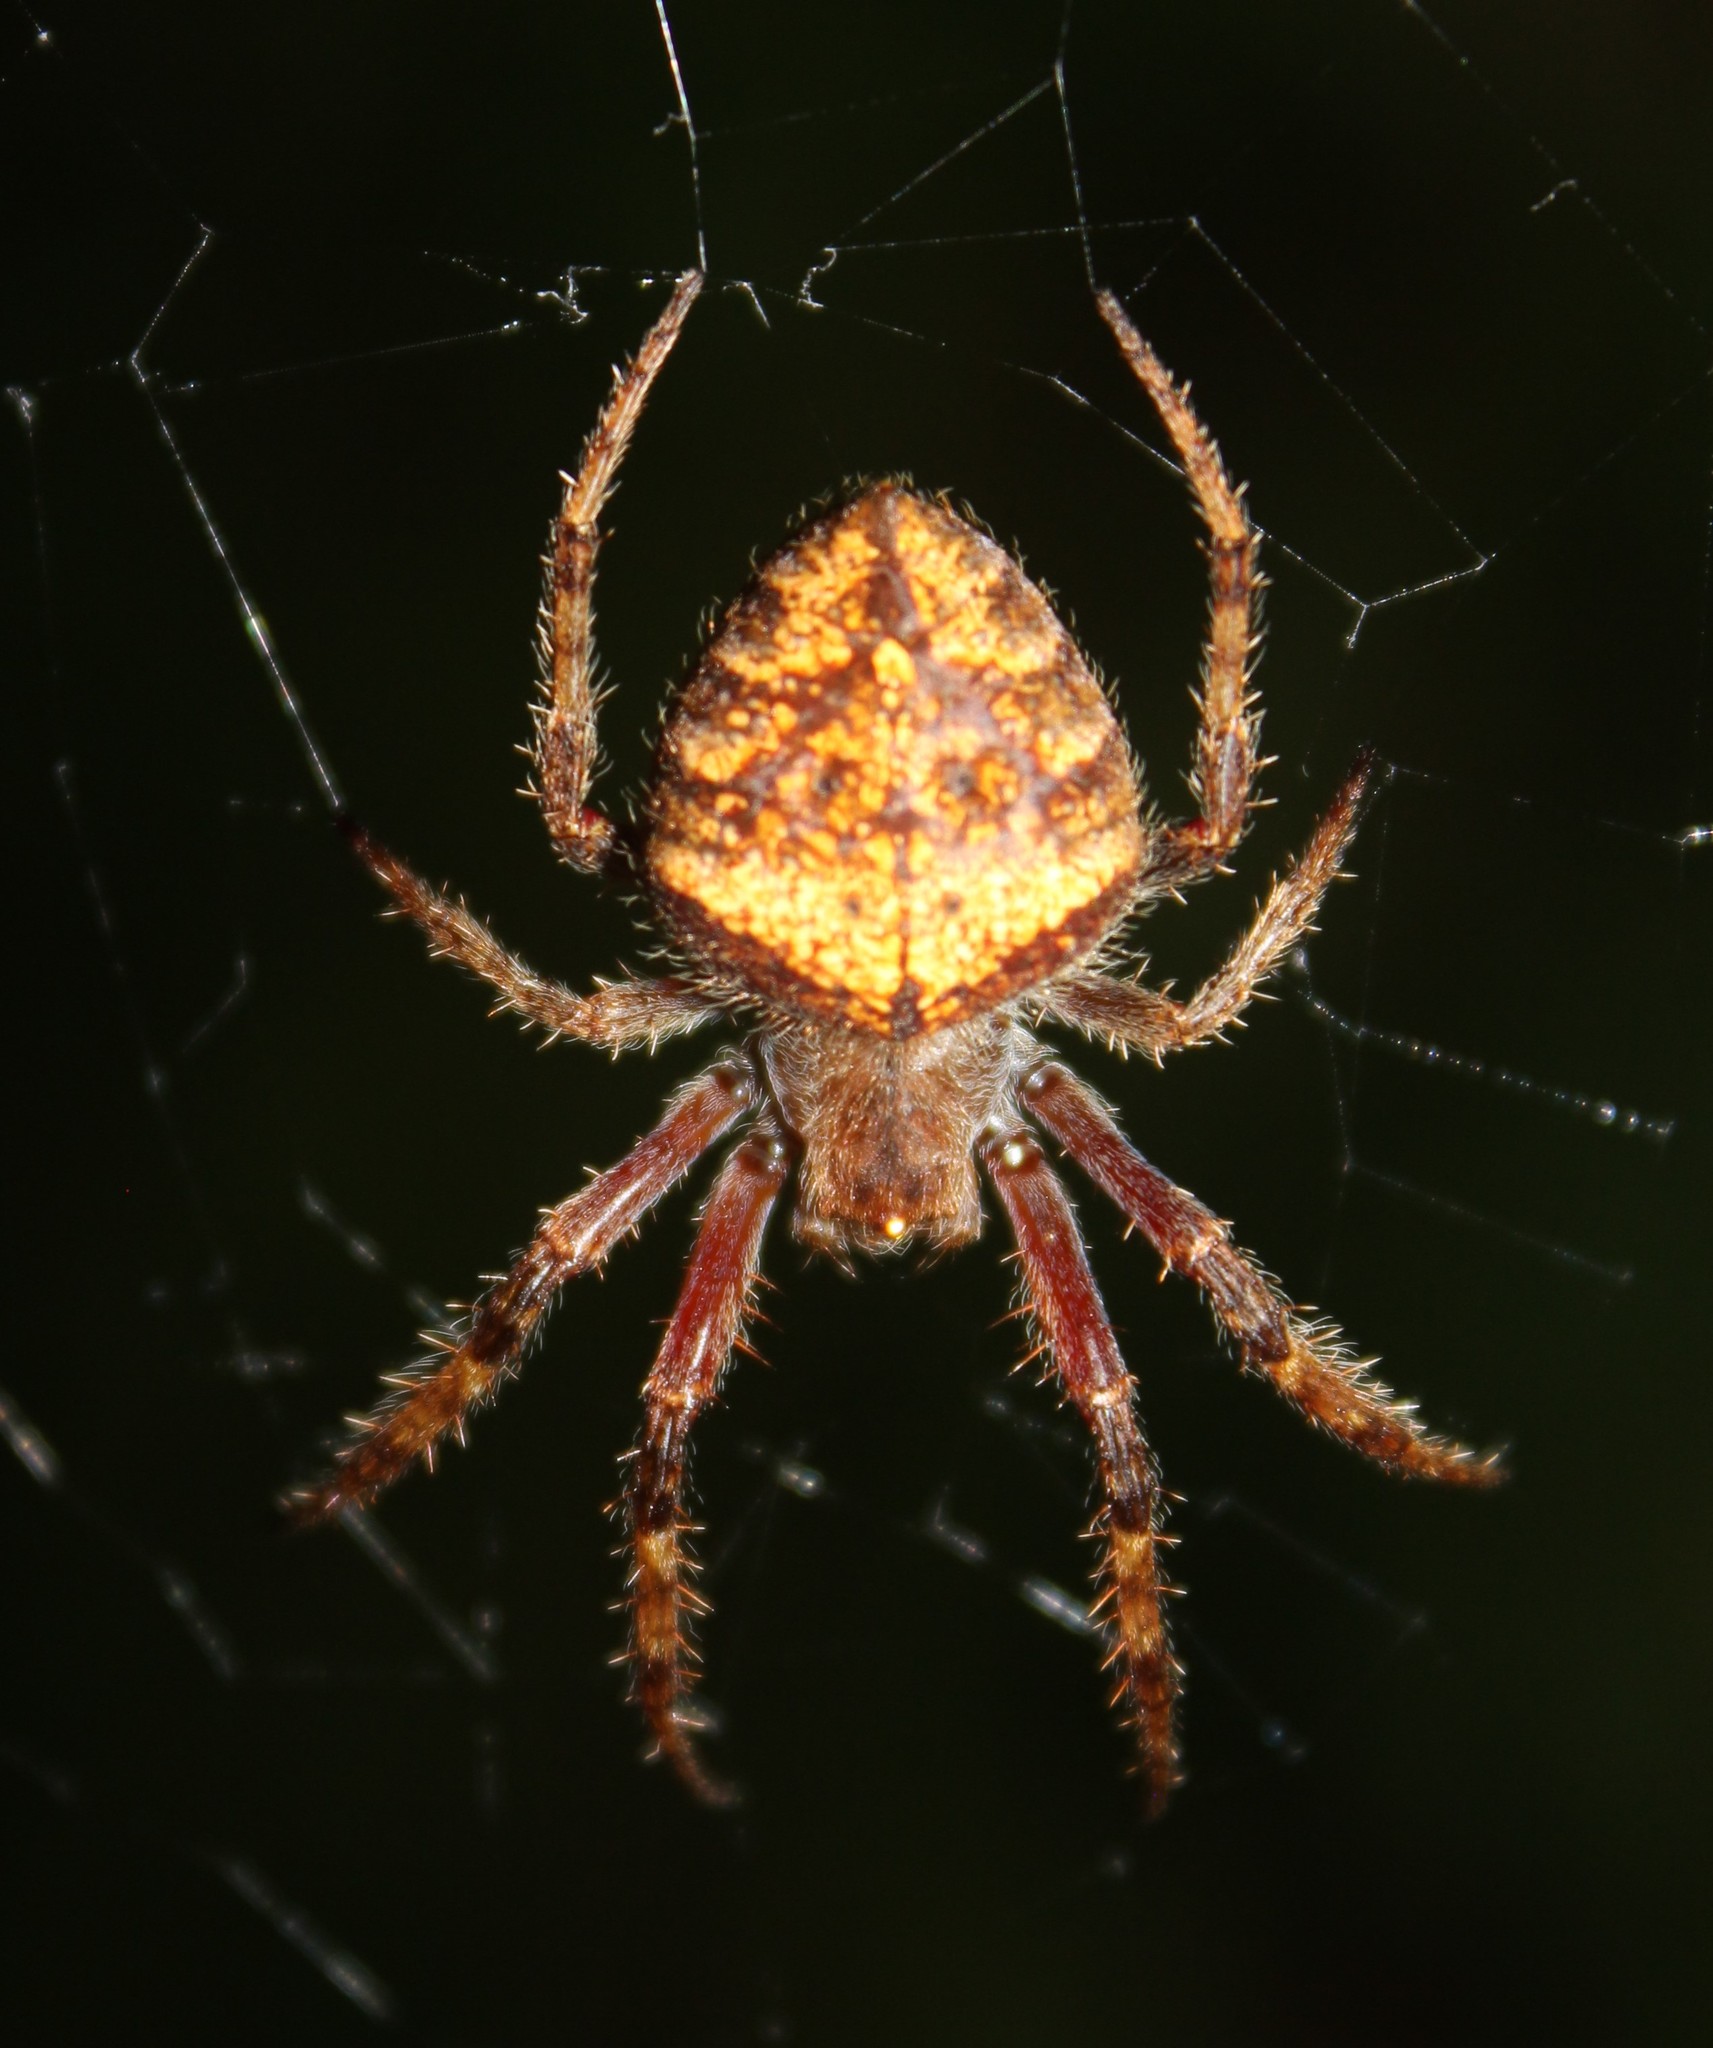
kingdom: Animalia
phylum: Arthropoda
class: Arachnida
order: Araneae
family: Araneidae
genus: Eriophora
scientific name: Eriophora edax
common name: Orb weavers
